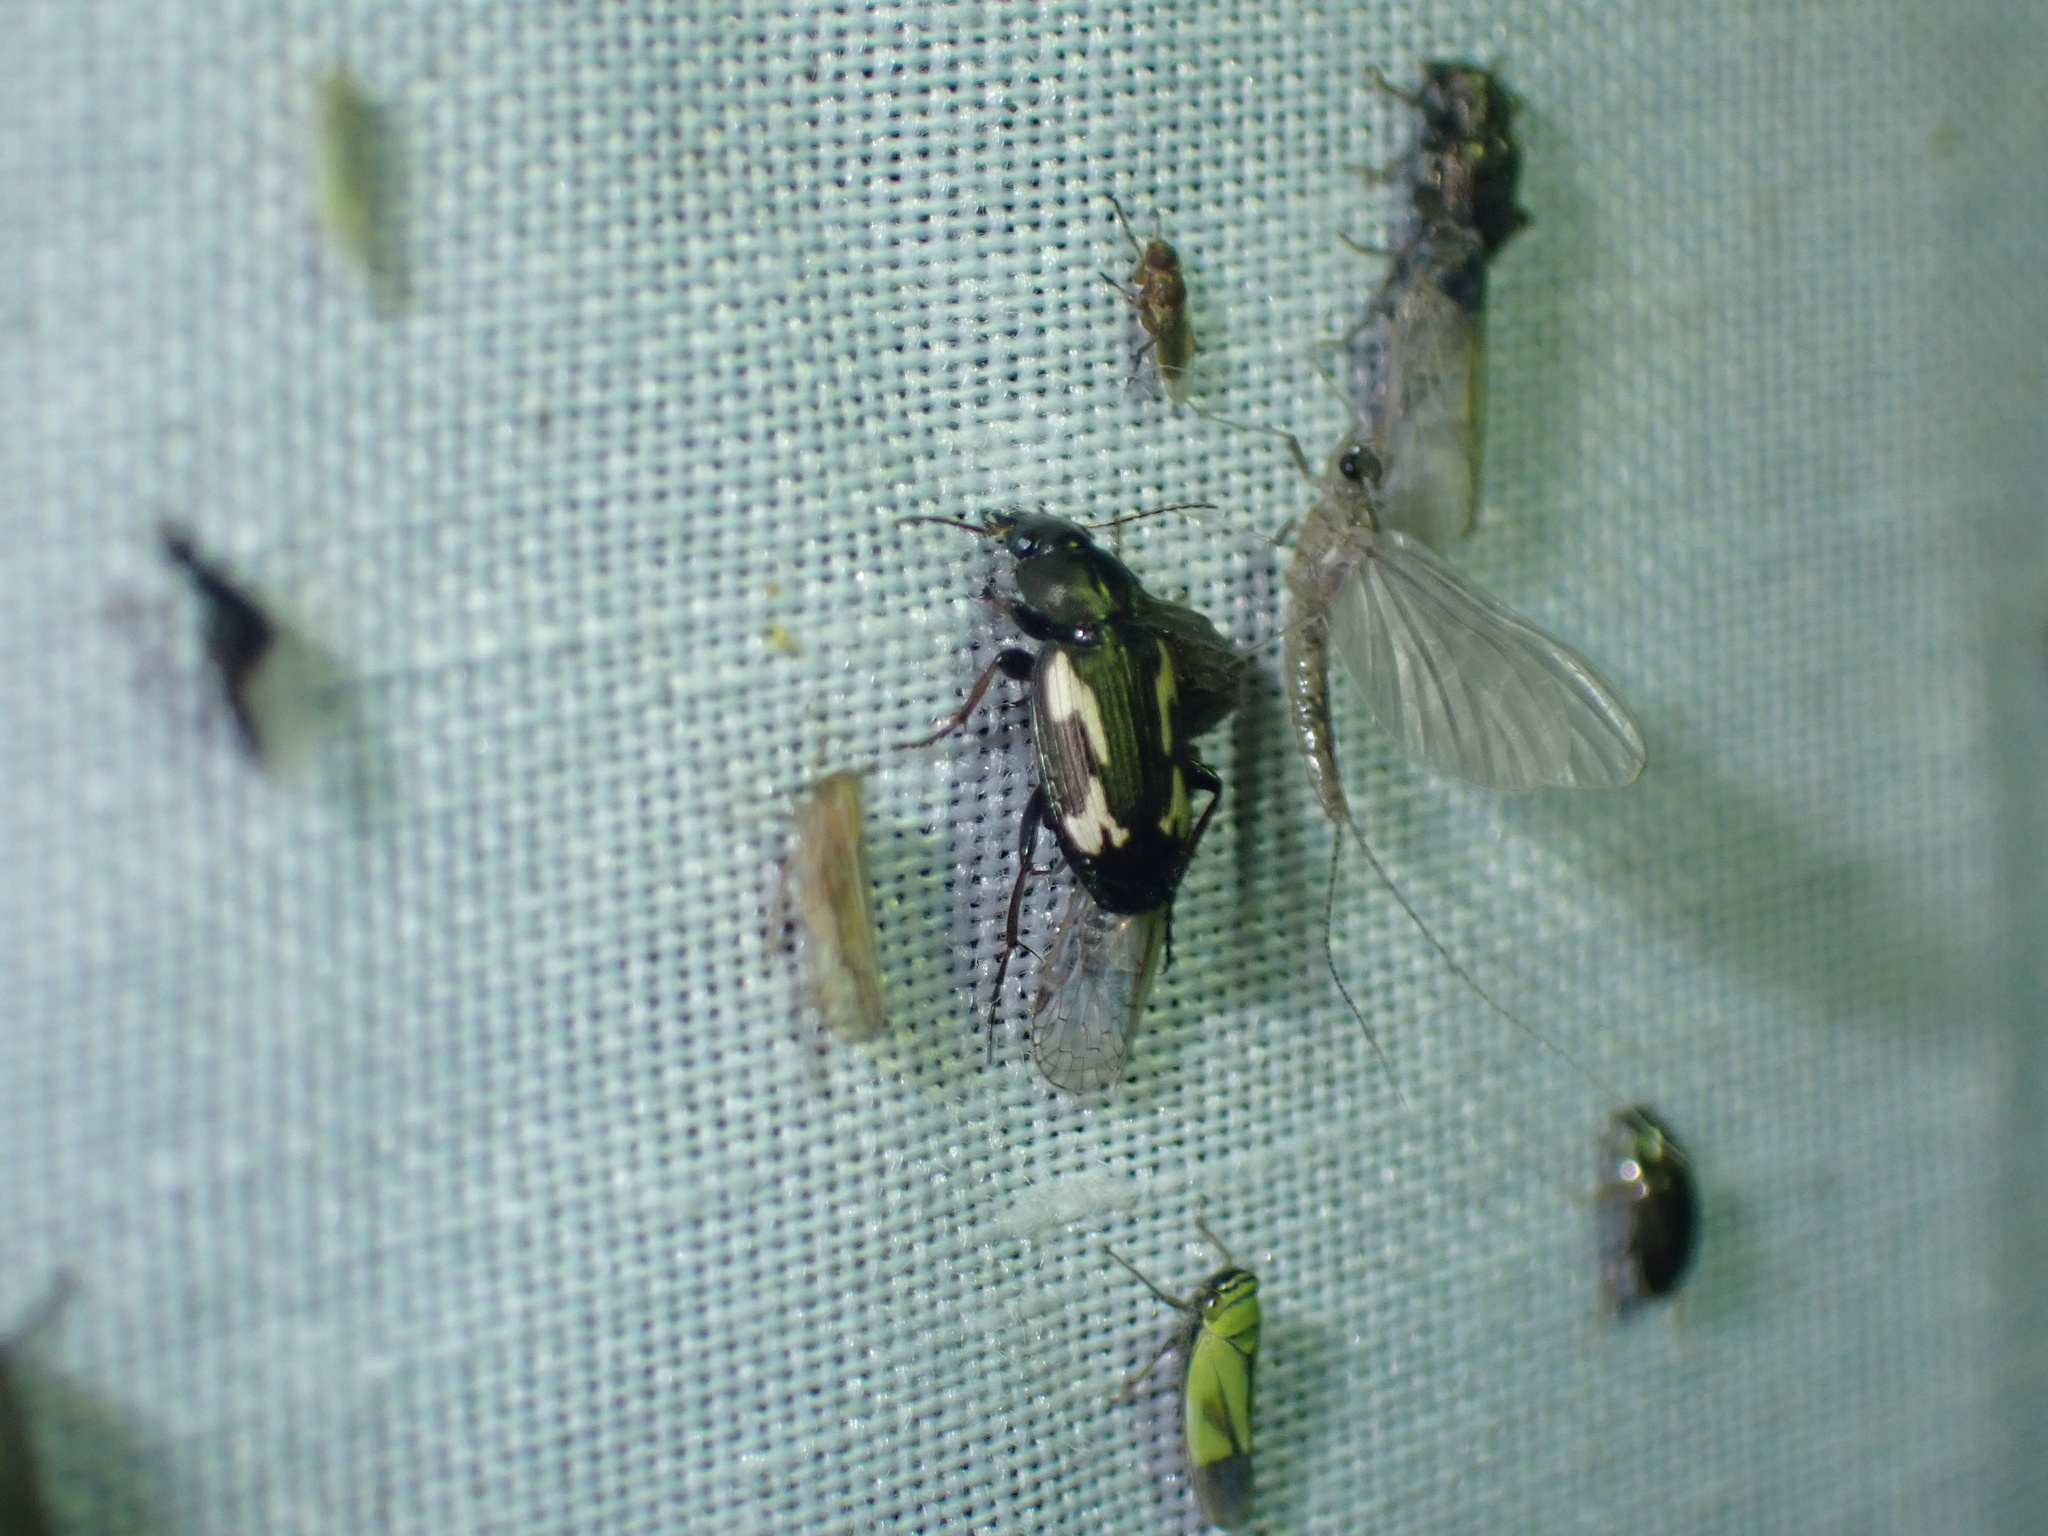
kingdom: Animalia
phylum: Arthropoda
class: Insecta
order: Coleoptera
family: Carabidae
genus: Tetragonoderus
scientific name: Tetragonoderus thunbergi
